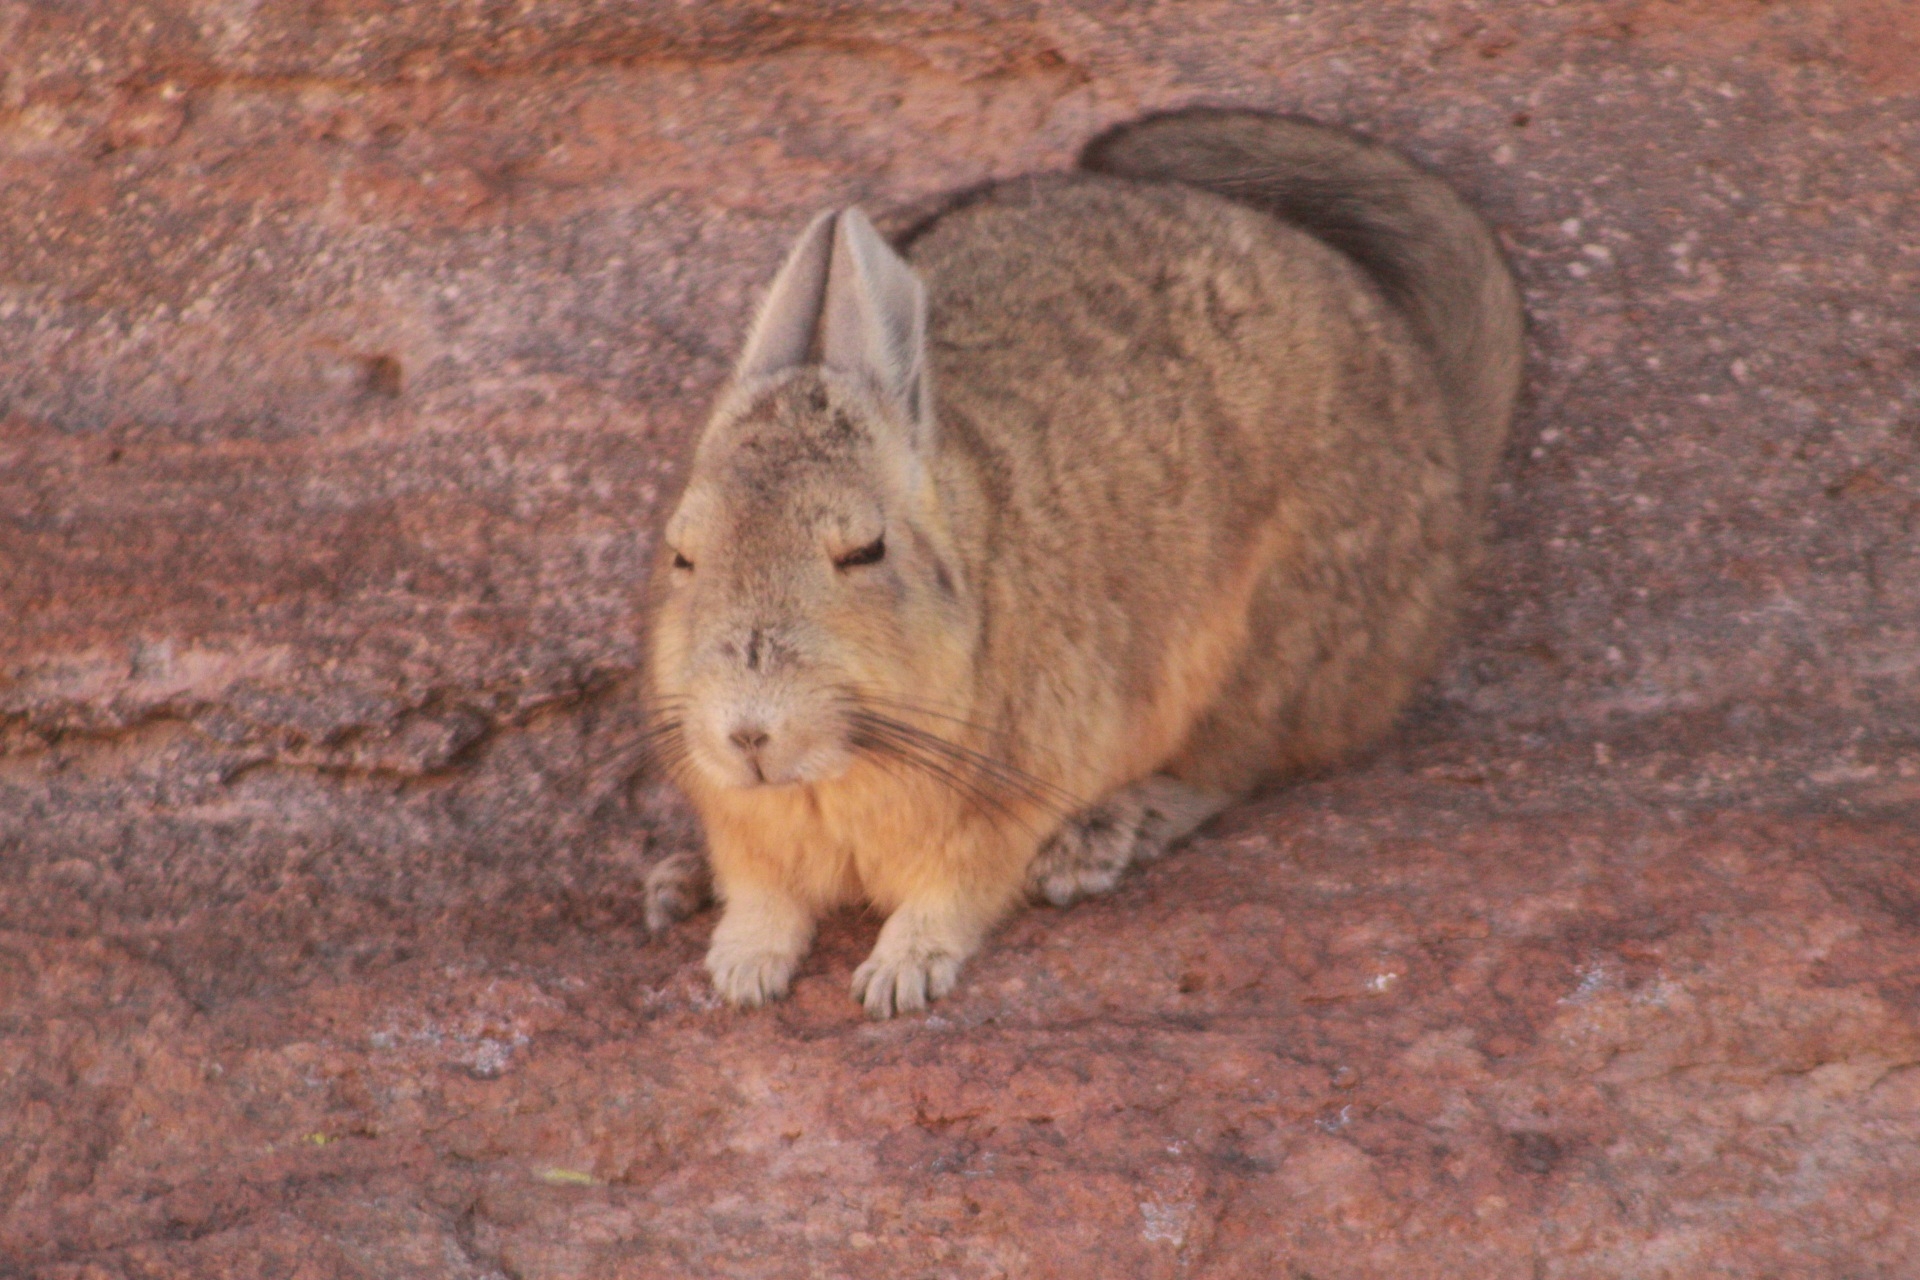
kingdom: Animalia
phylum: Chordata
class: Mammalia
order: Rodentia
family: Chinchillidae
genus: Lagidium
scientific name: Lagidium viscacia
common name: Southern viscacha
